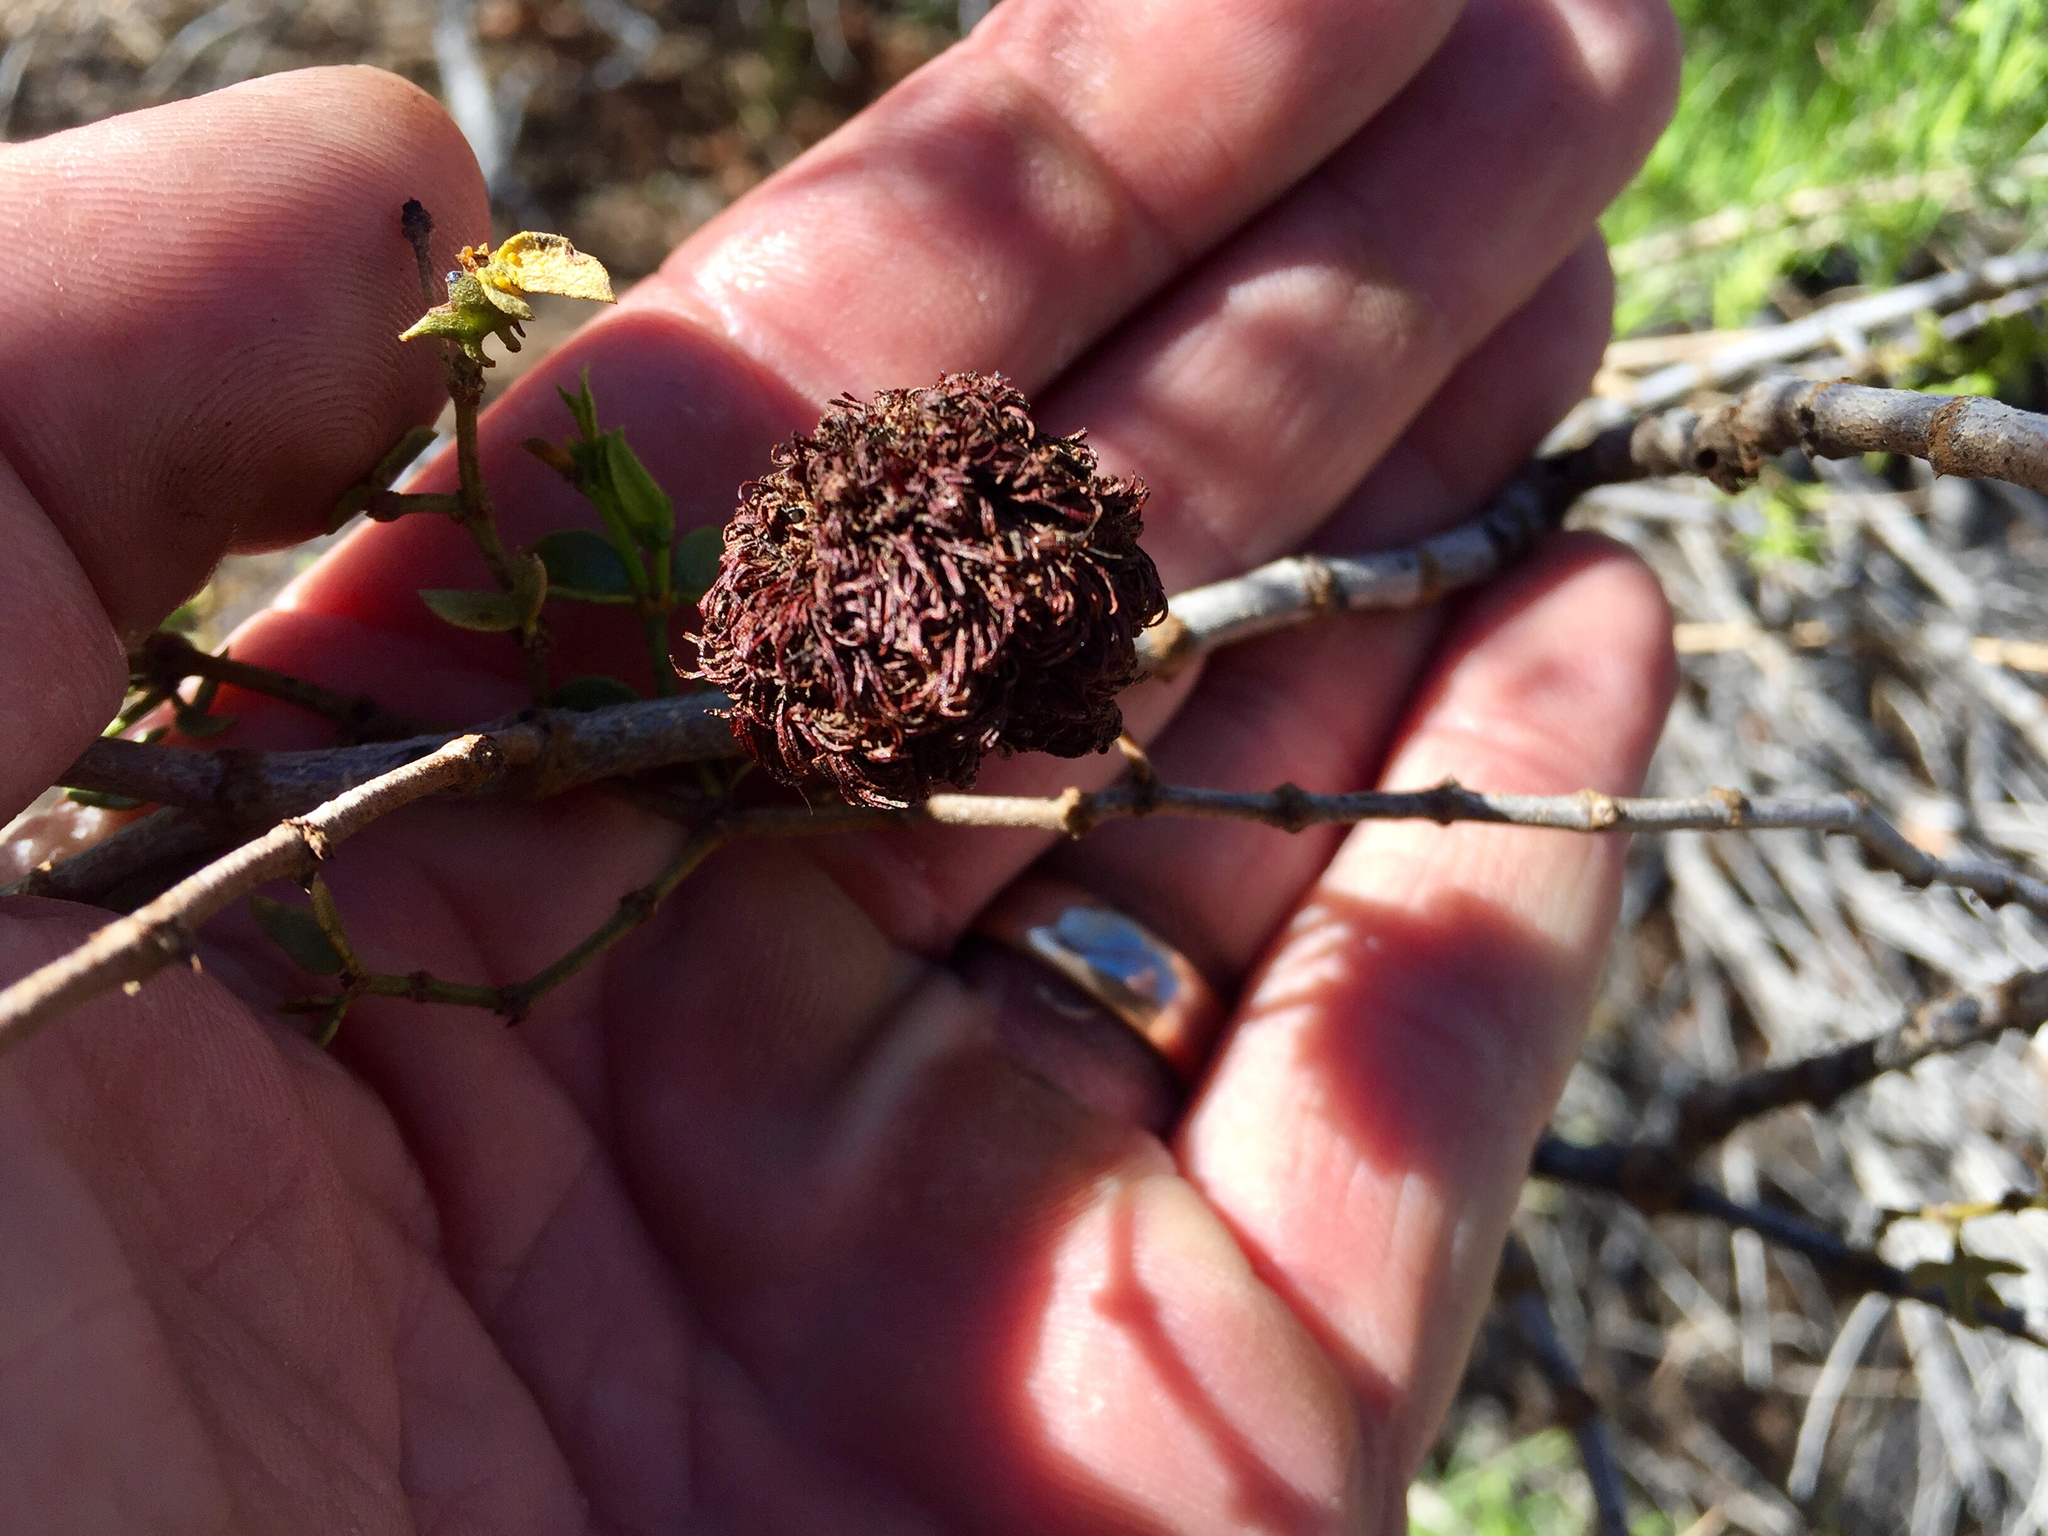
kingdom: Animalia
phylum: Arthropoda
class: Insecta
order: Diptera
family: Cecidomyiidae
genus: Asphondylia
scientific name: Asphondylia auripila
